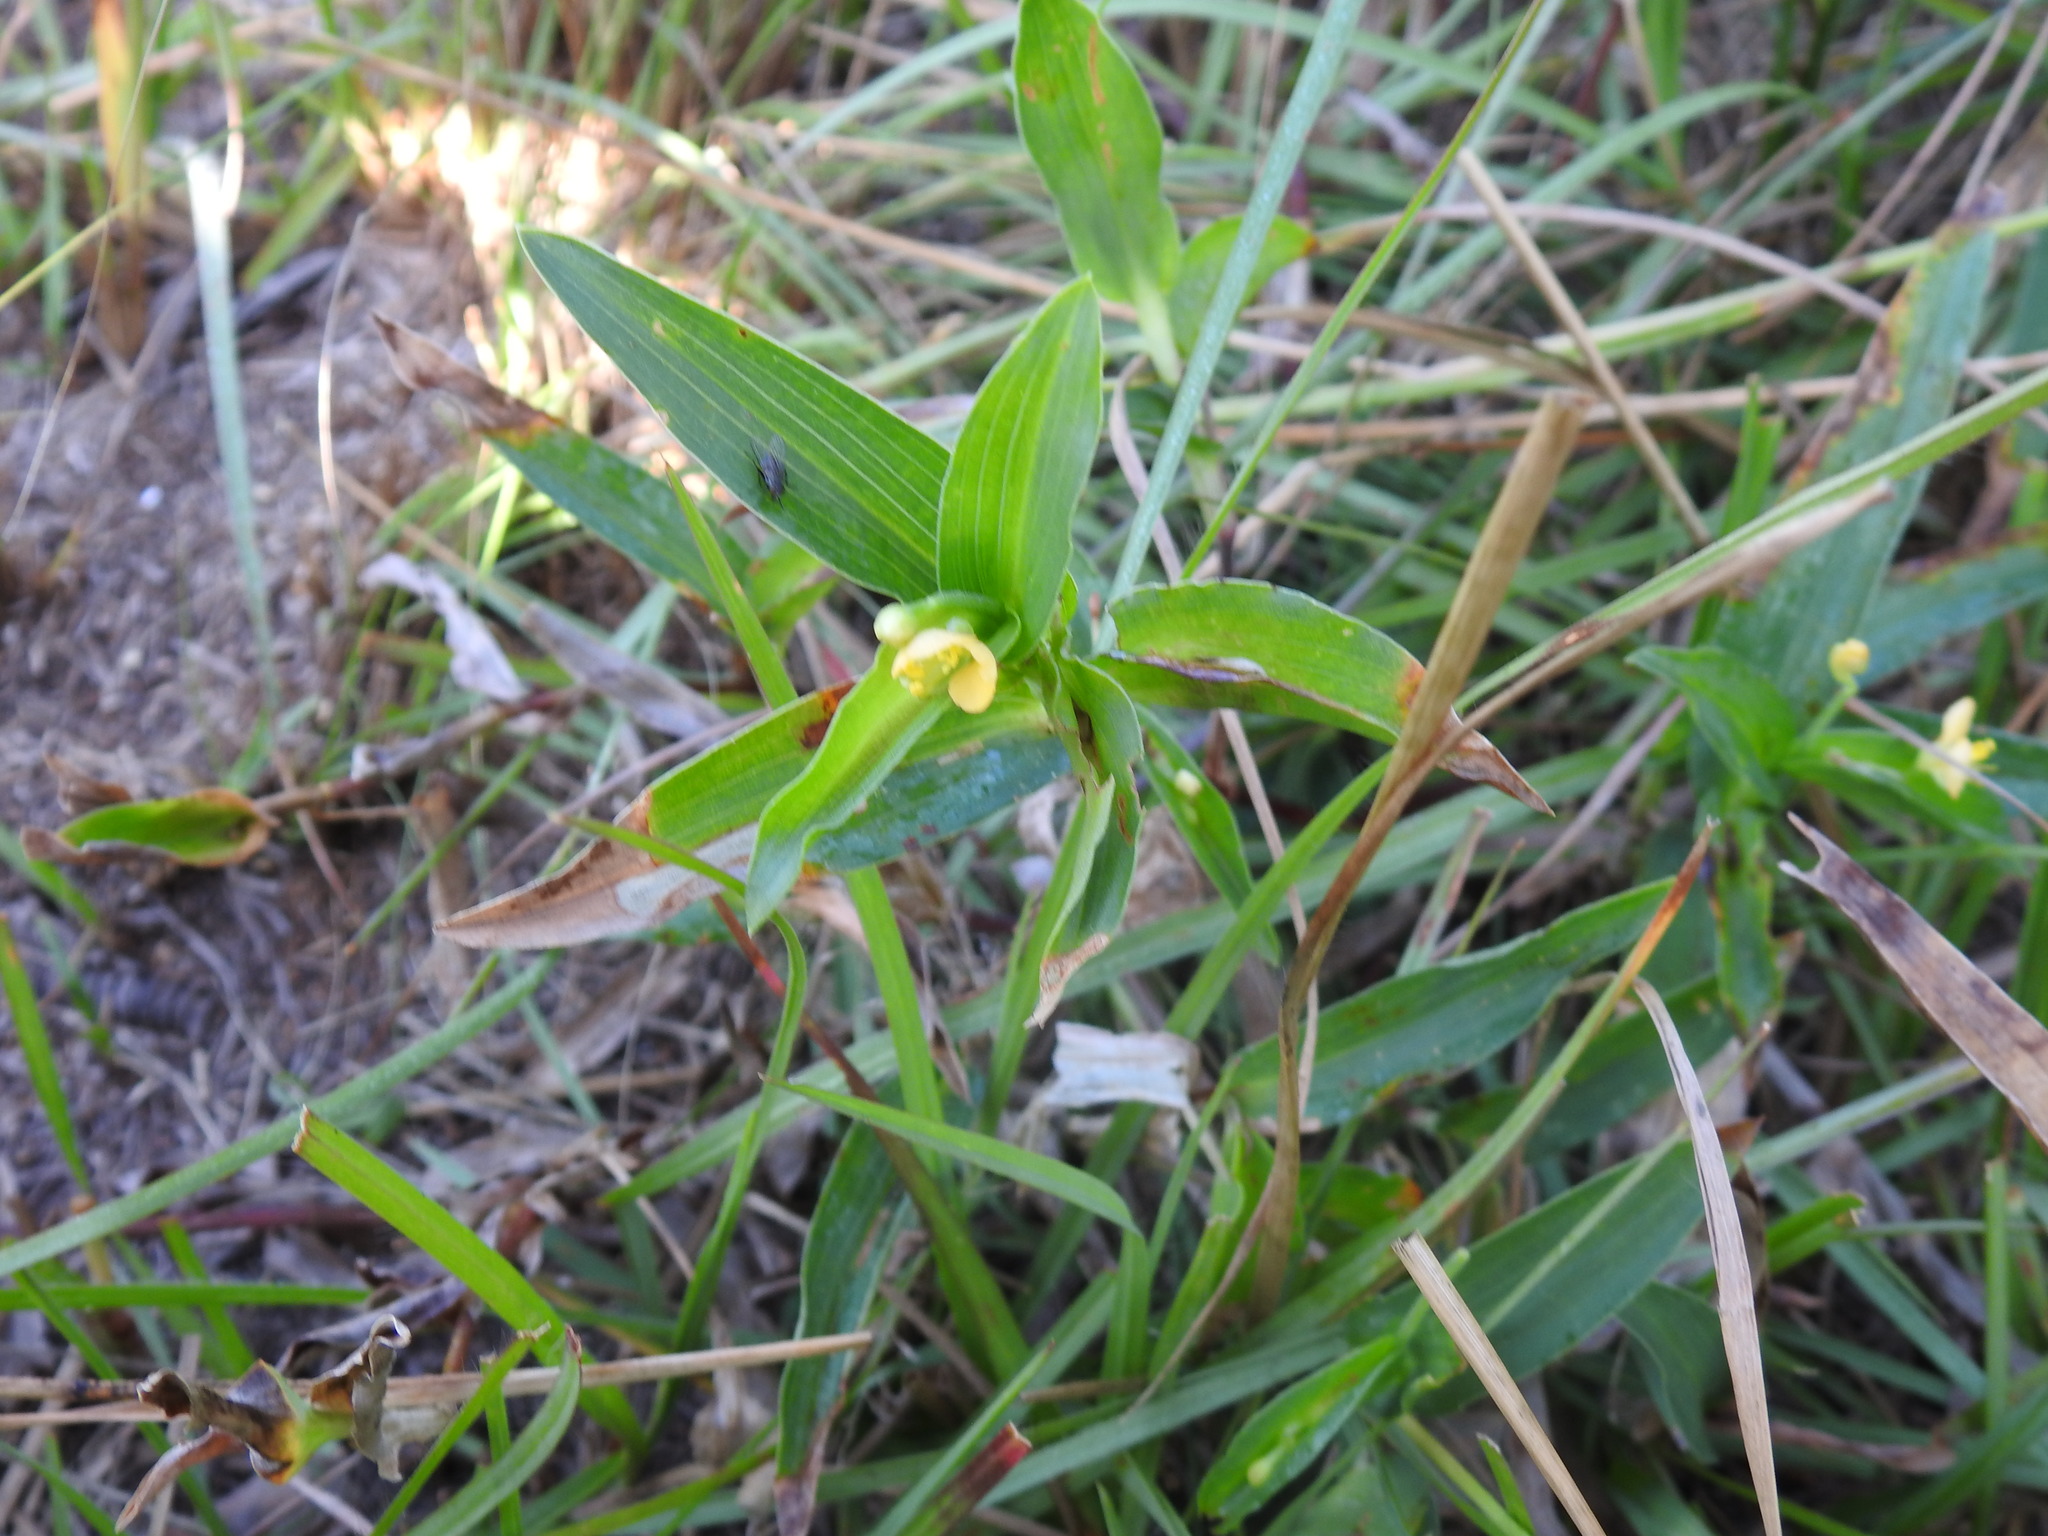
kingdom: Plantae
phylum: Tracheophyta
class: Liliopsida
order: Commelinales
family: Commelinaceae
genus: Commelina
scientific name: Commelina africana
